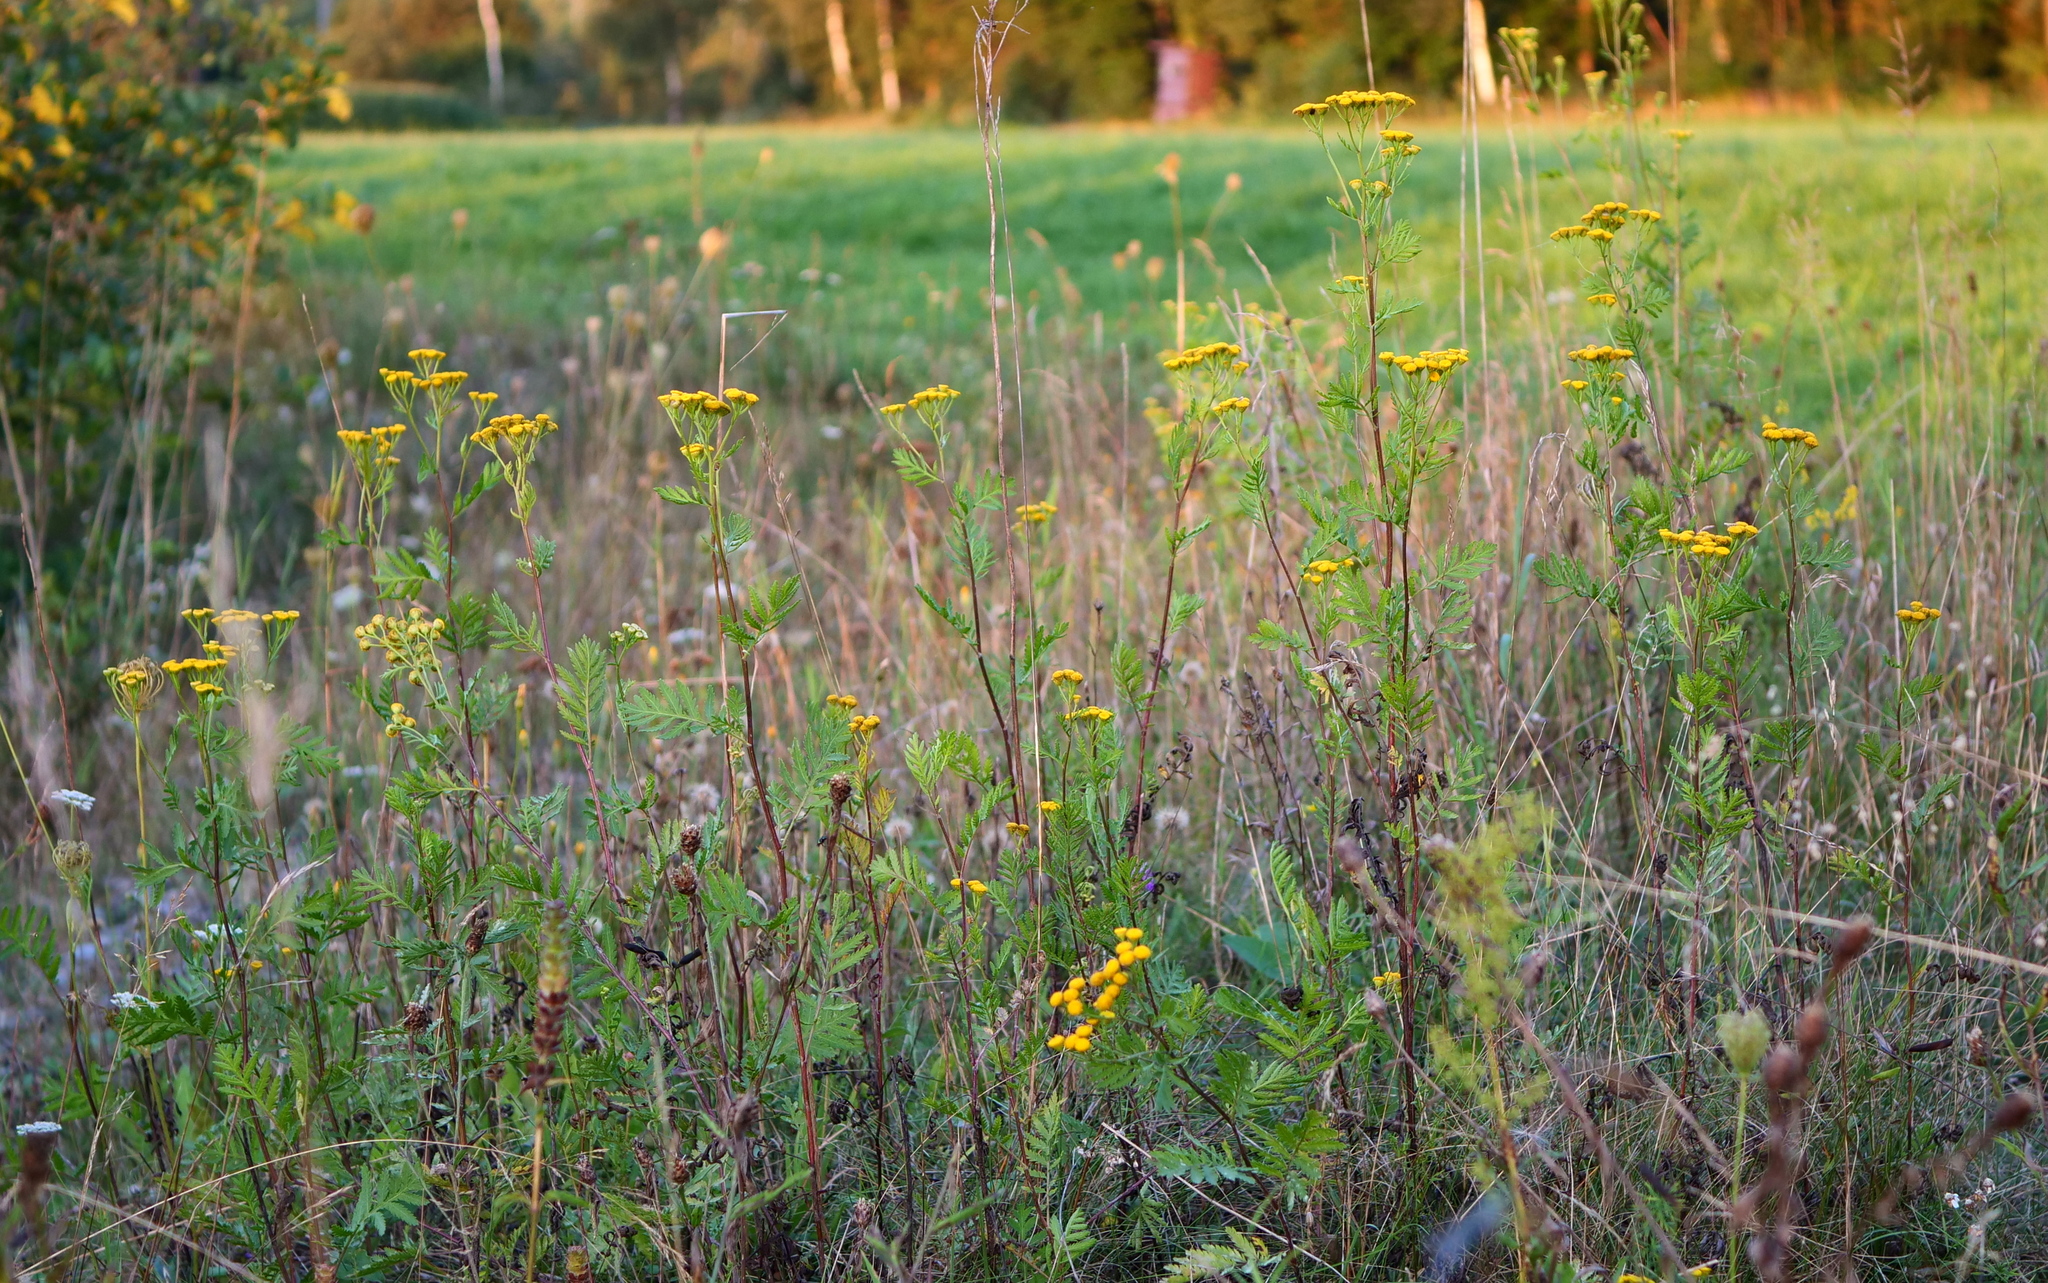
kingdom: Plantae
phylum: Tracheophyta
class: Magnoliopsida
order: Asterales
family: Asteraceae
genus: Tanacetum
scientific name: Tanacetum vulgare
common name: Common tansy
